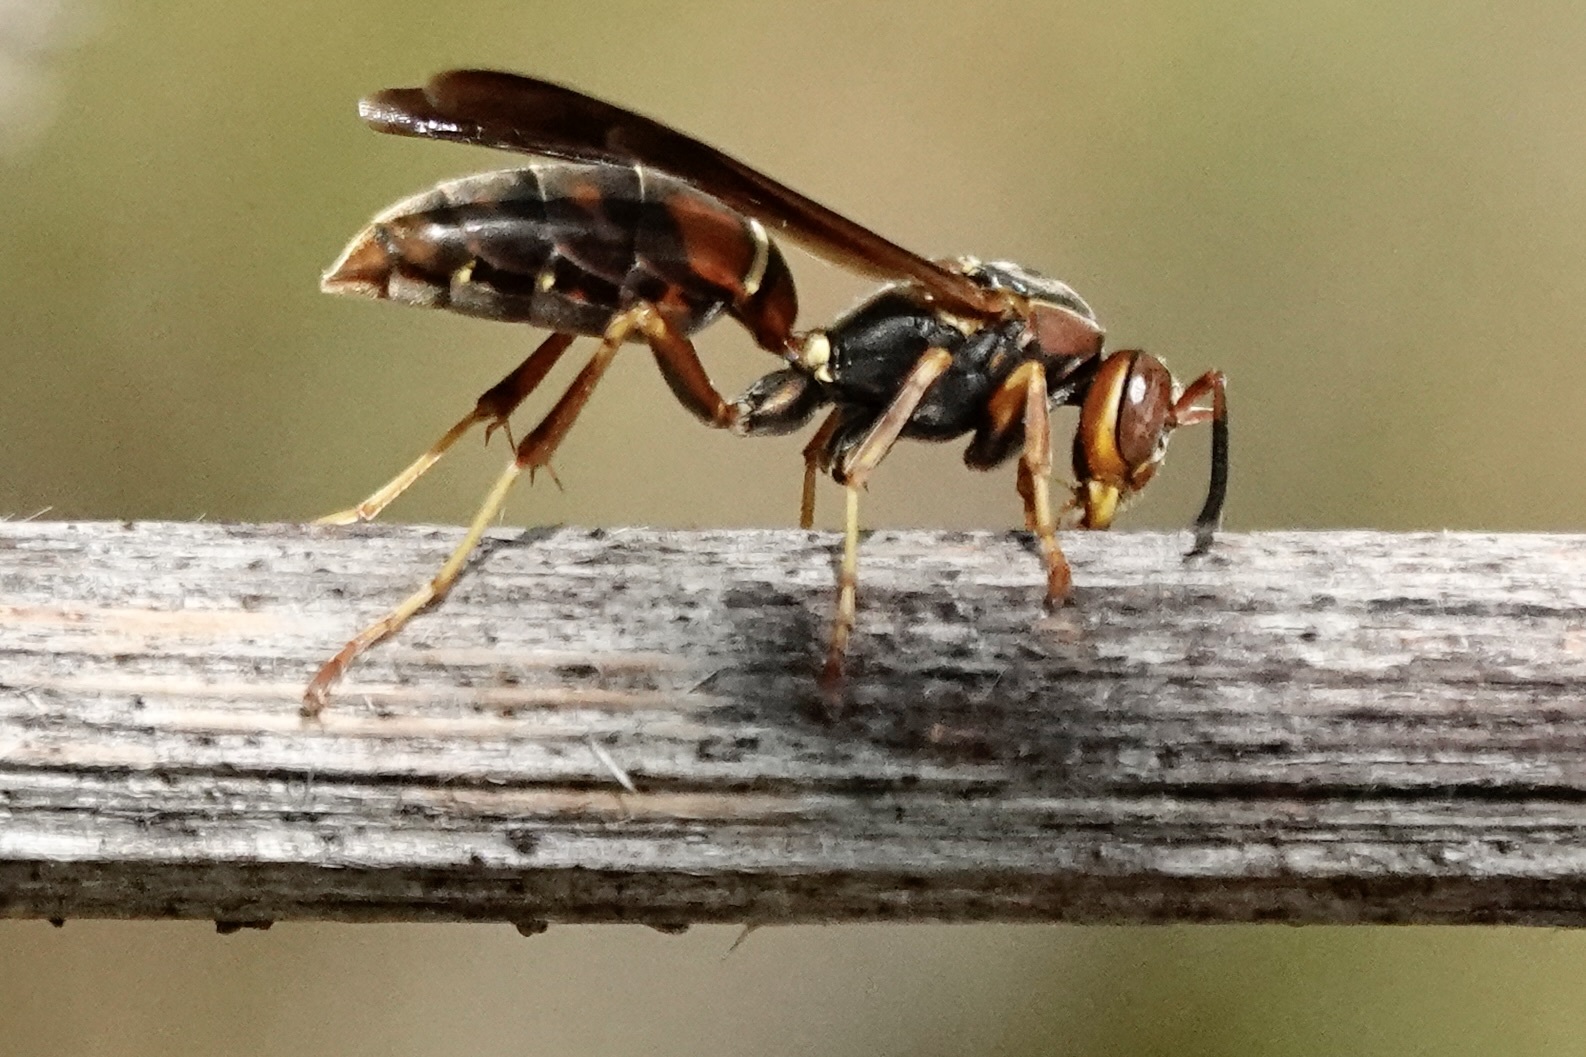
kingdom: Animalia
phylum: Arthropoda
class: Insecta
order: Hymenoptera
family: Eumenidae
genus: Polistes
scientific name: Polistes fuscatus
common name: Dark paper wasp
